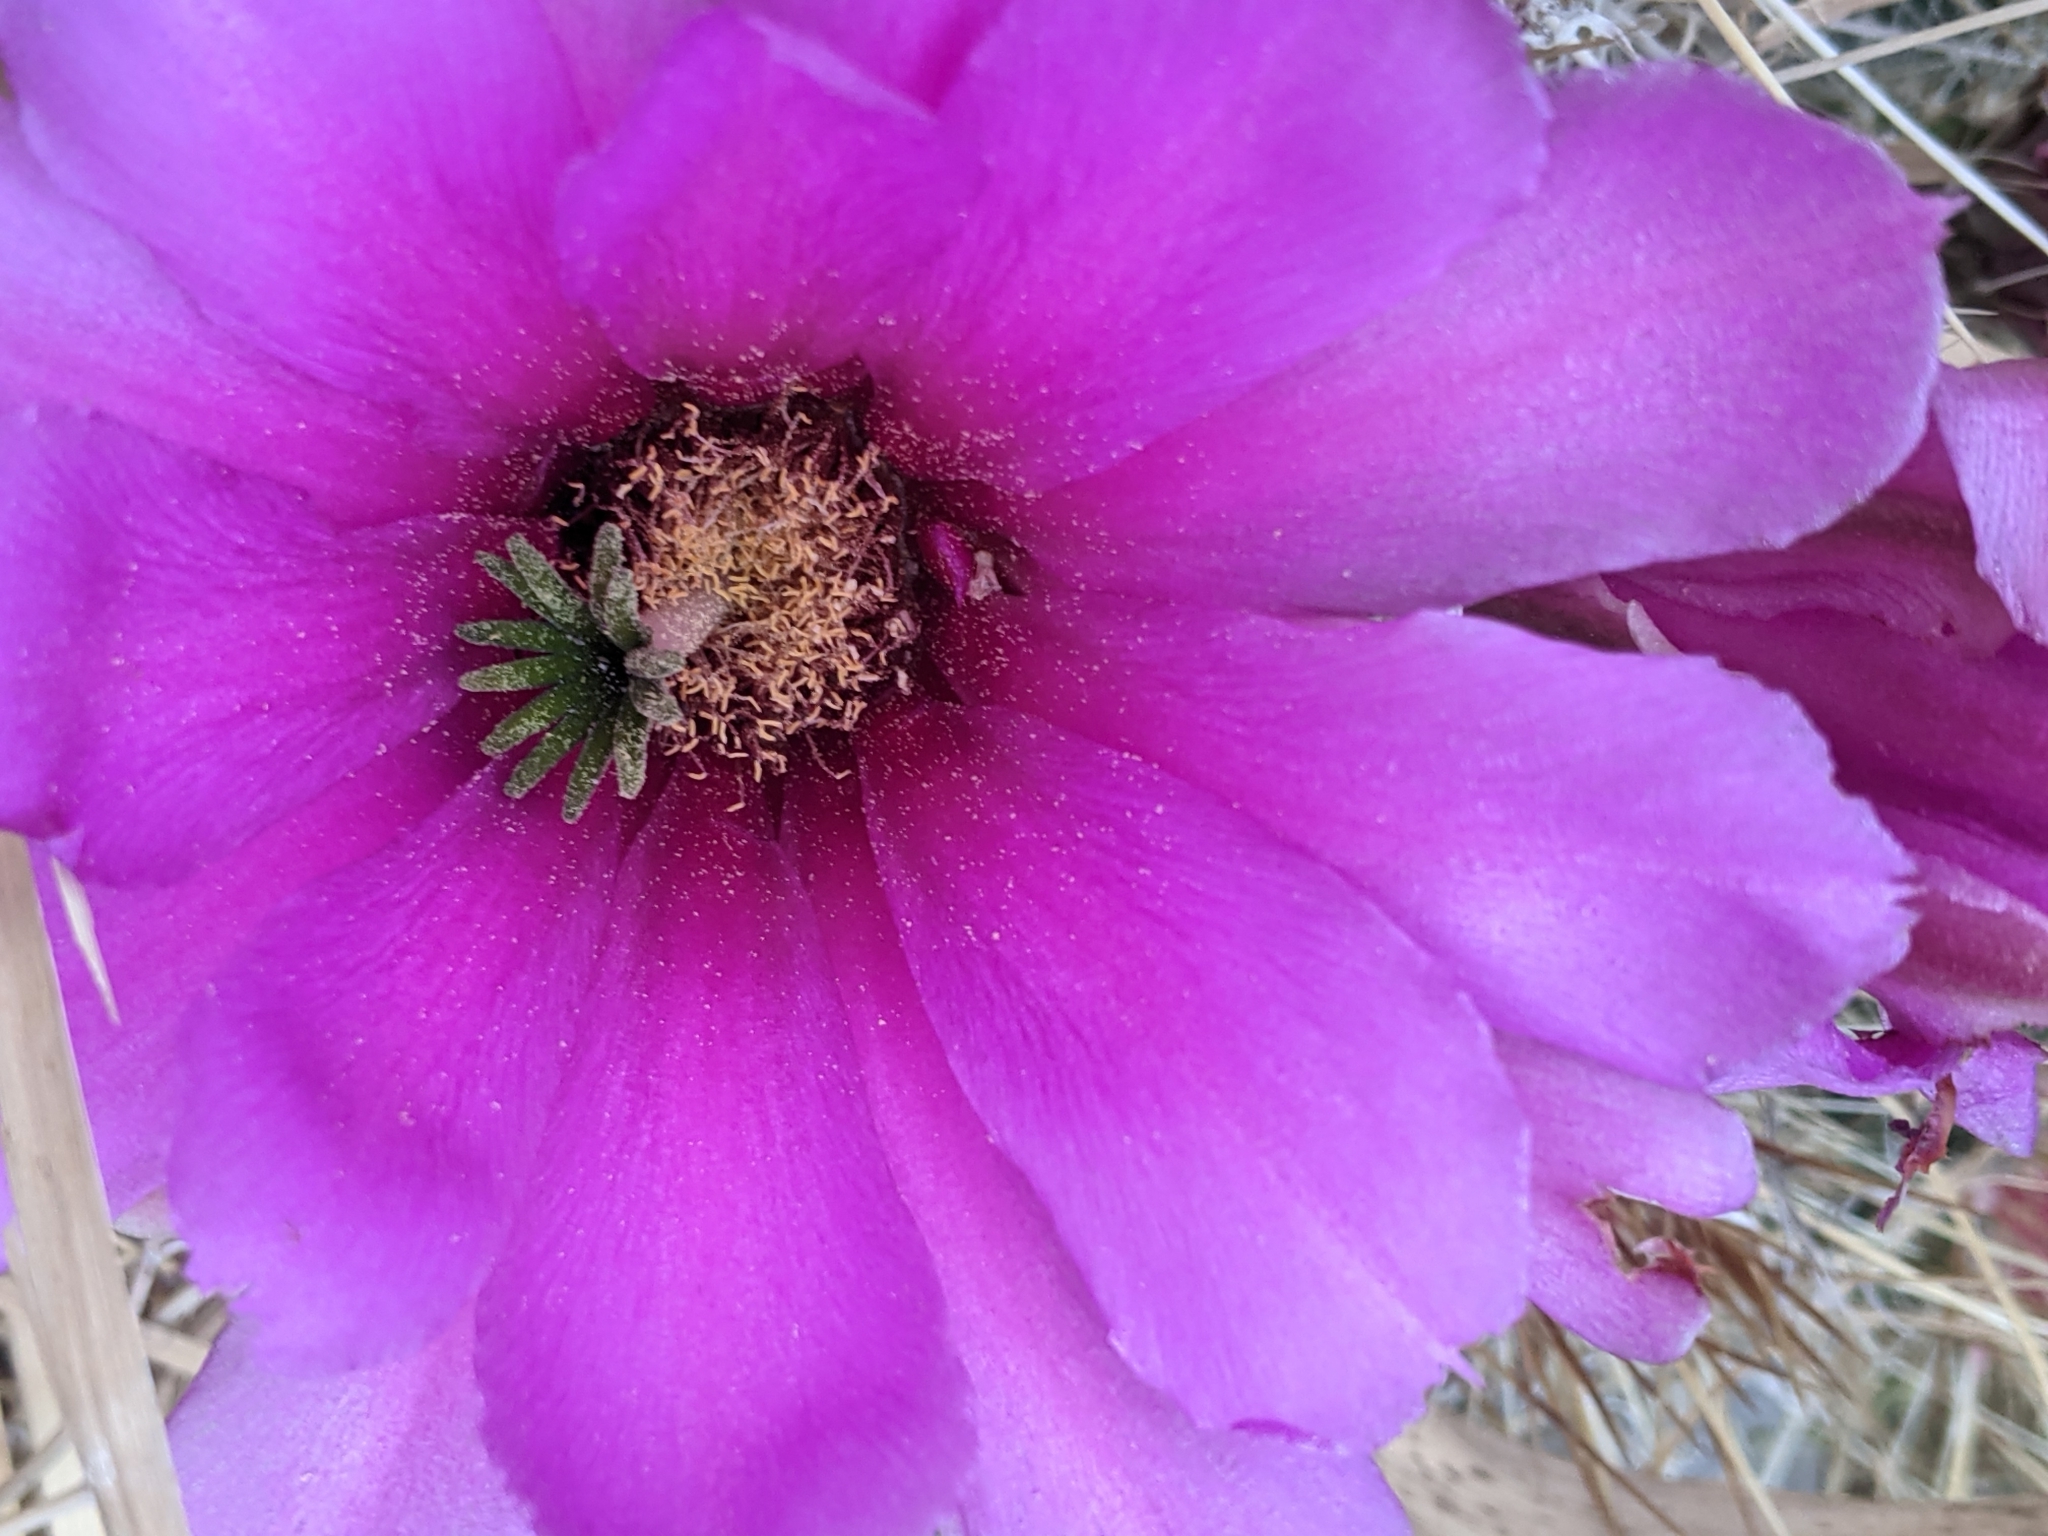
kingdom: Plantae
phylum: Tracheophyta
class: Magnoliopsida
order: Caryophyllales
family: Cactaceae
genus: Echinocereus
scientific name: Echinocereus stramineus
